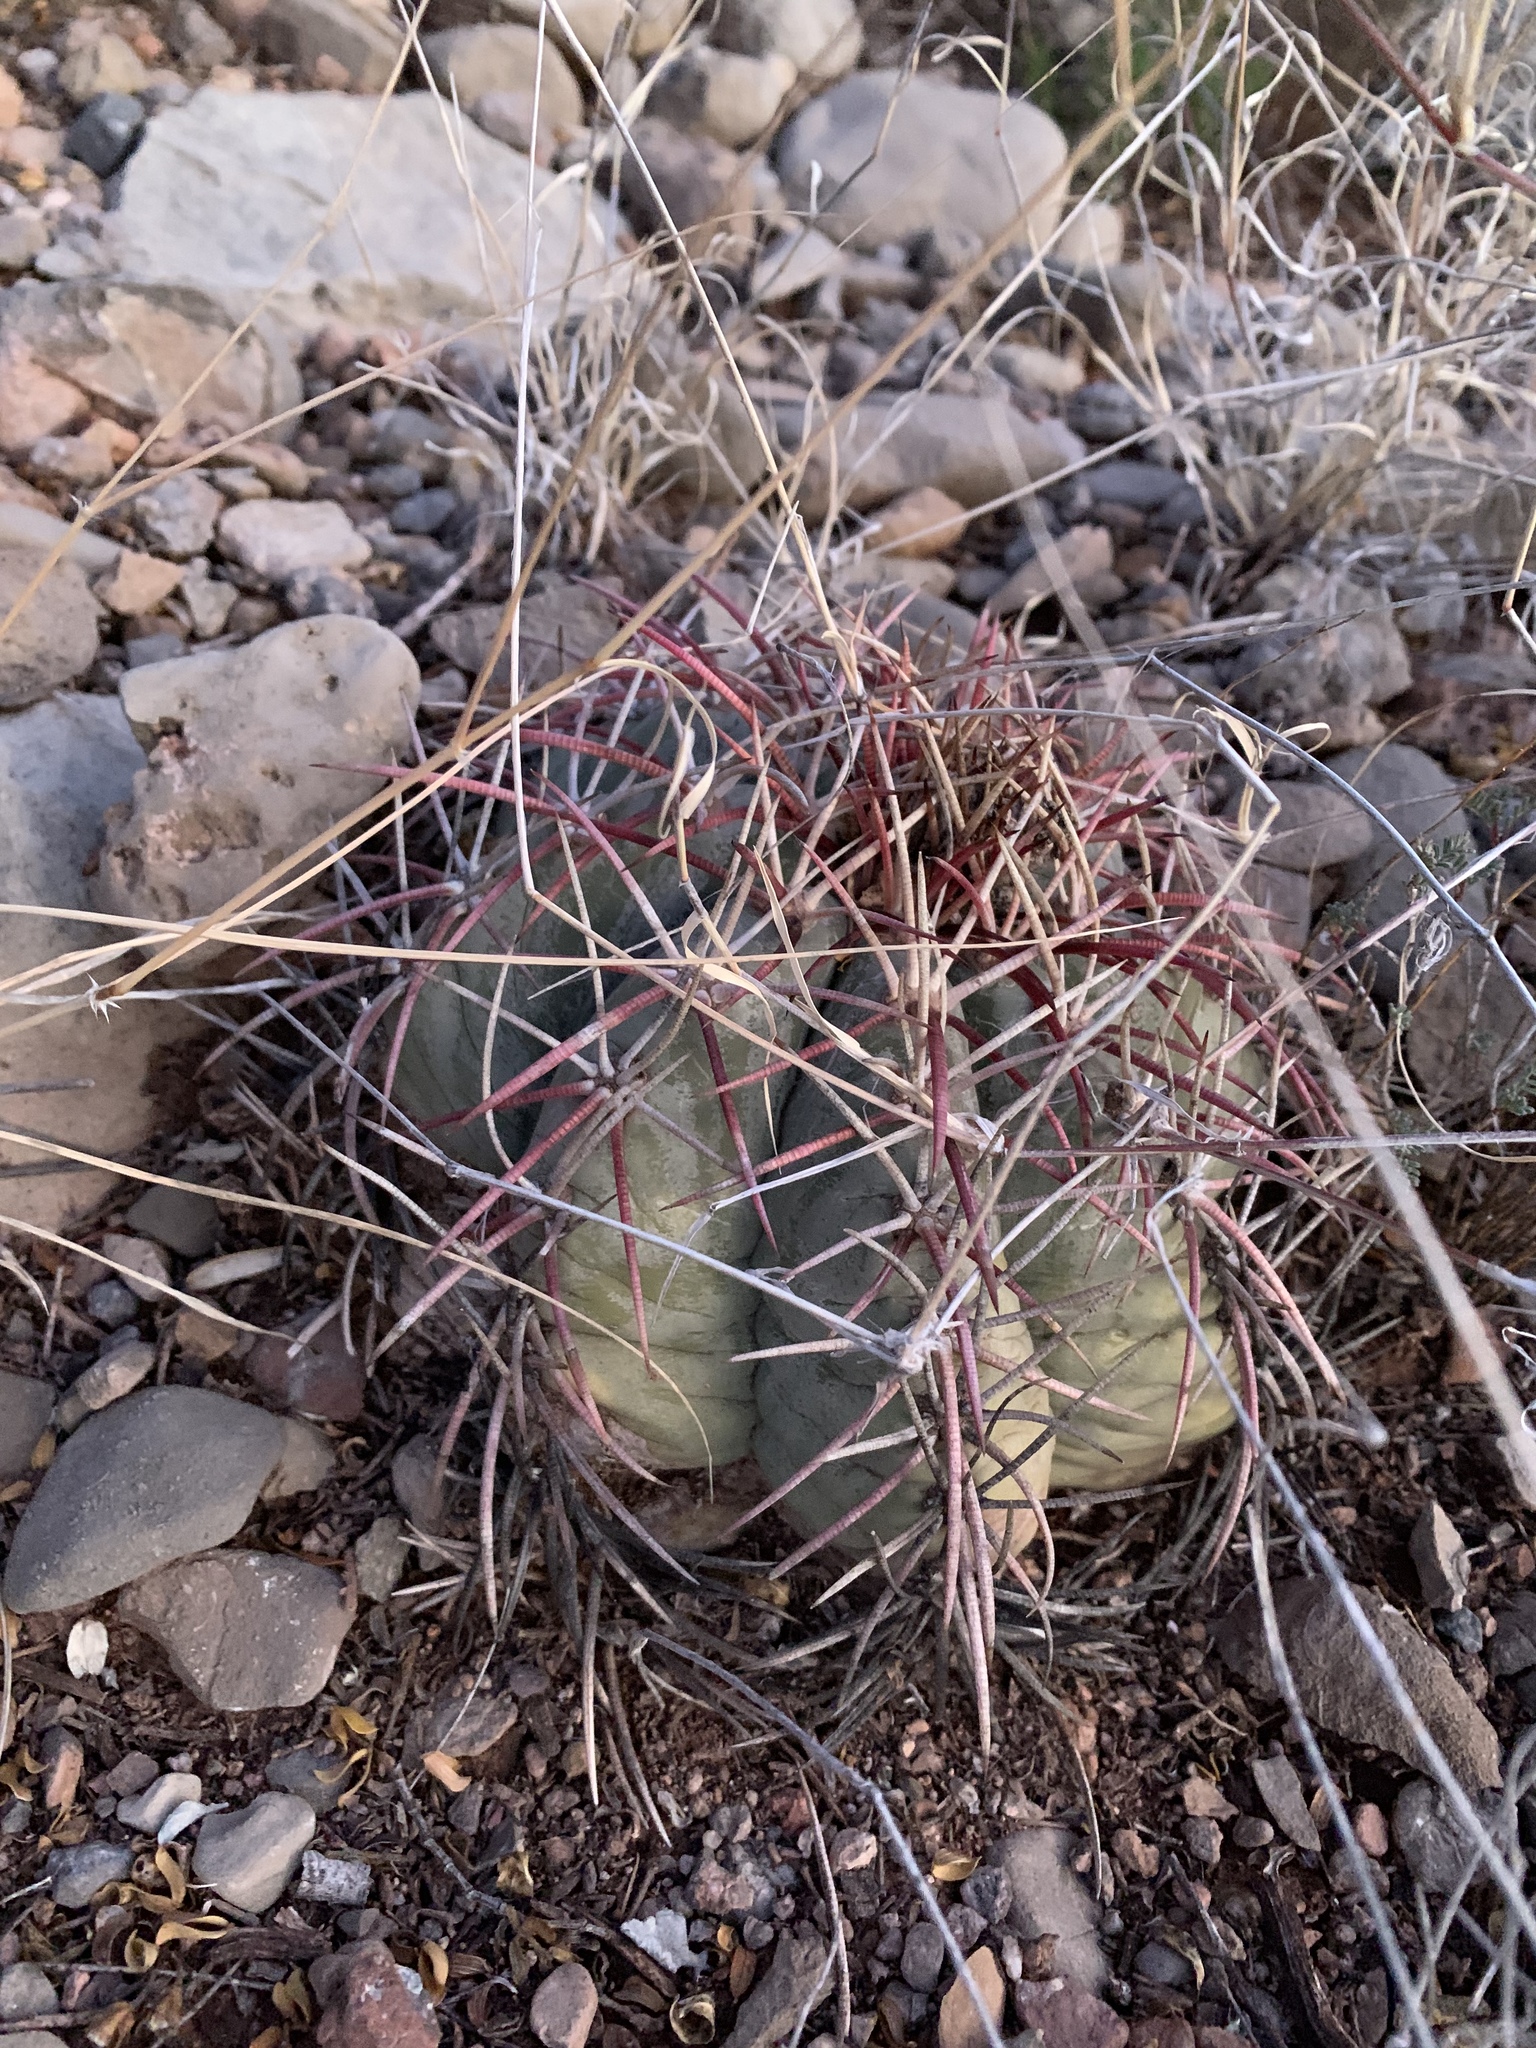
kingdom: Plantae
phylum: Tracheophyta
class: Magnoliopsida
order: Caryophyllales
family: Cactaceae
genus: Echinocactus
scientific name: Echinocactus horizonthalonius
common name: Devilshead
